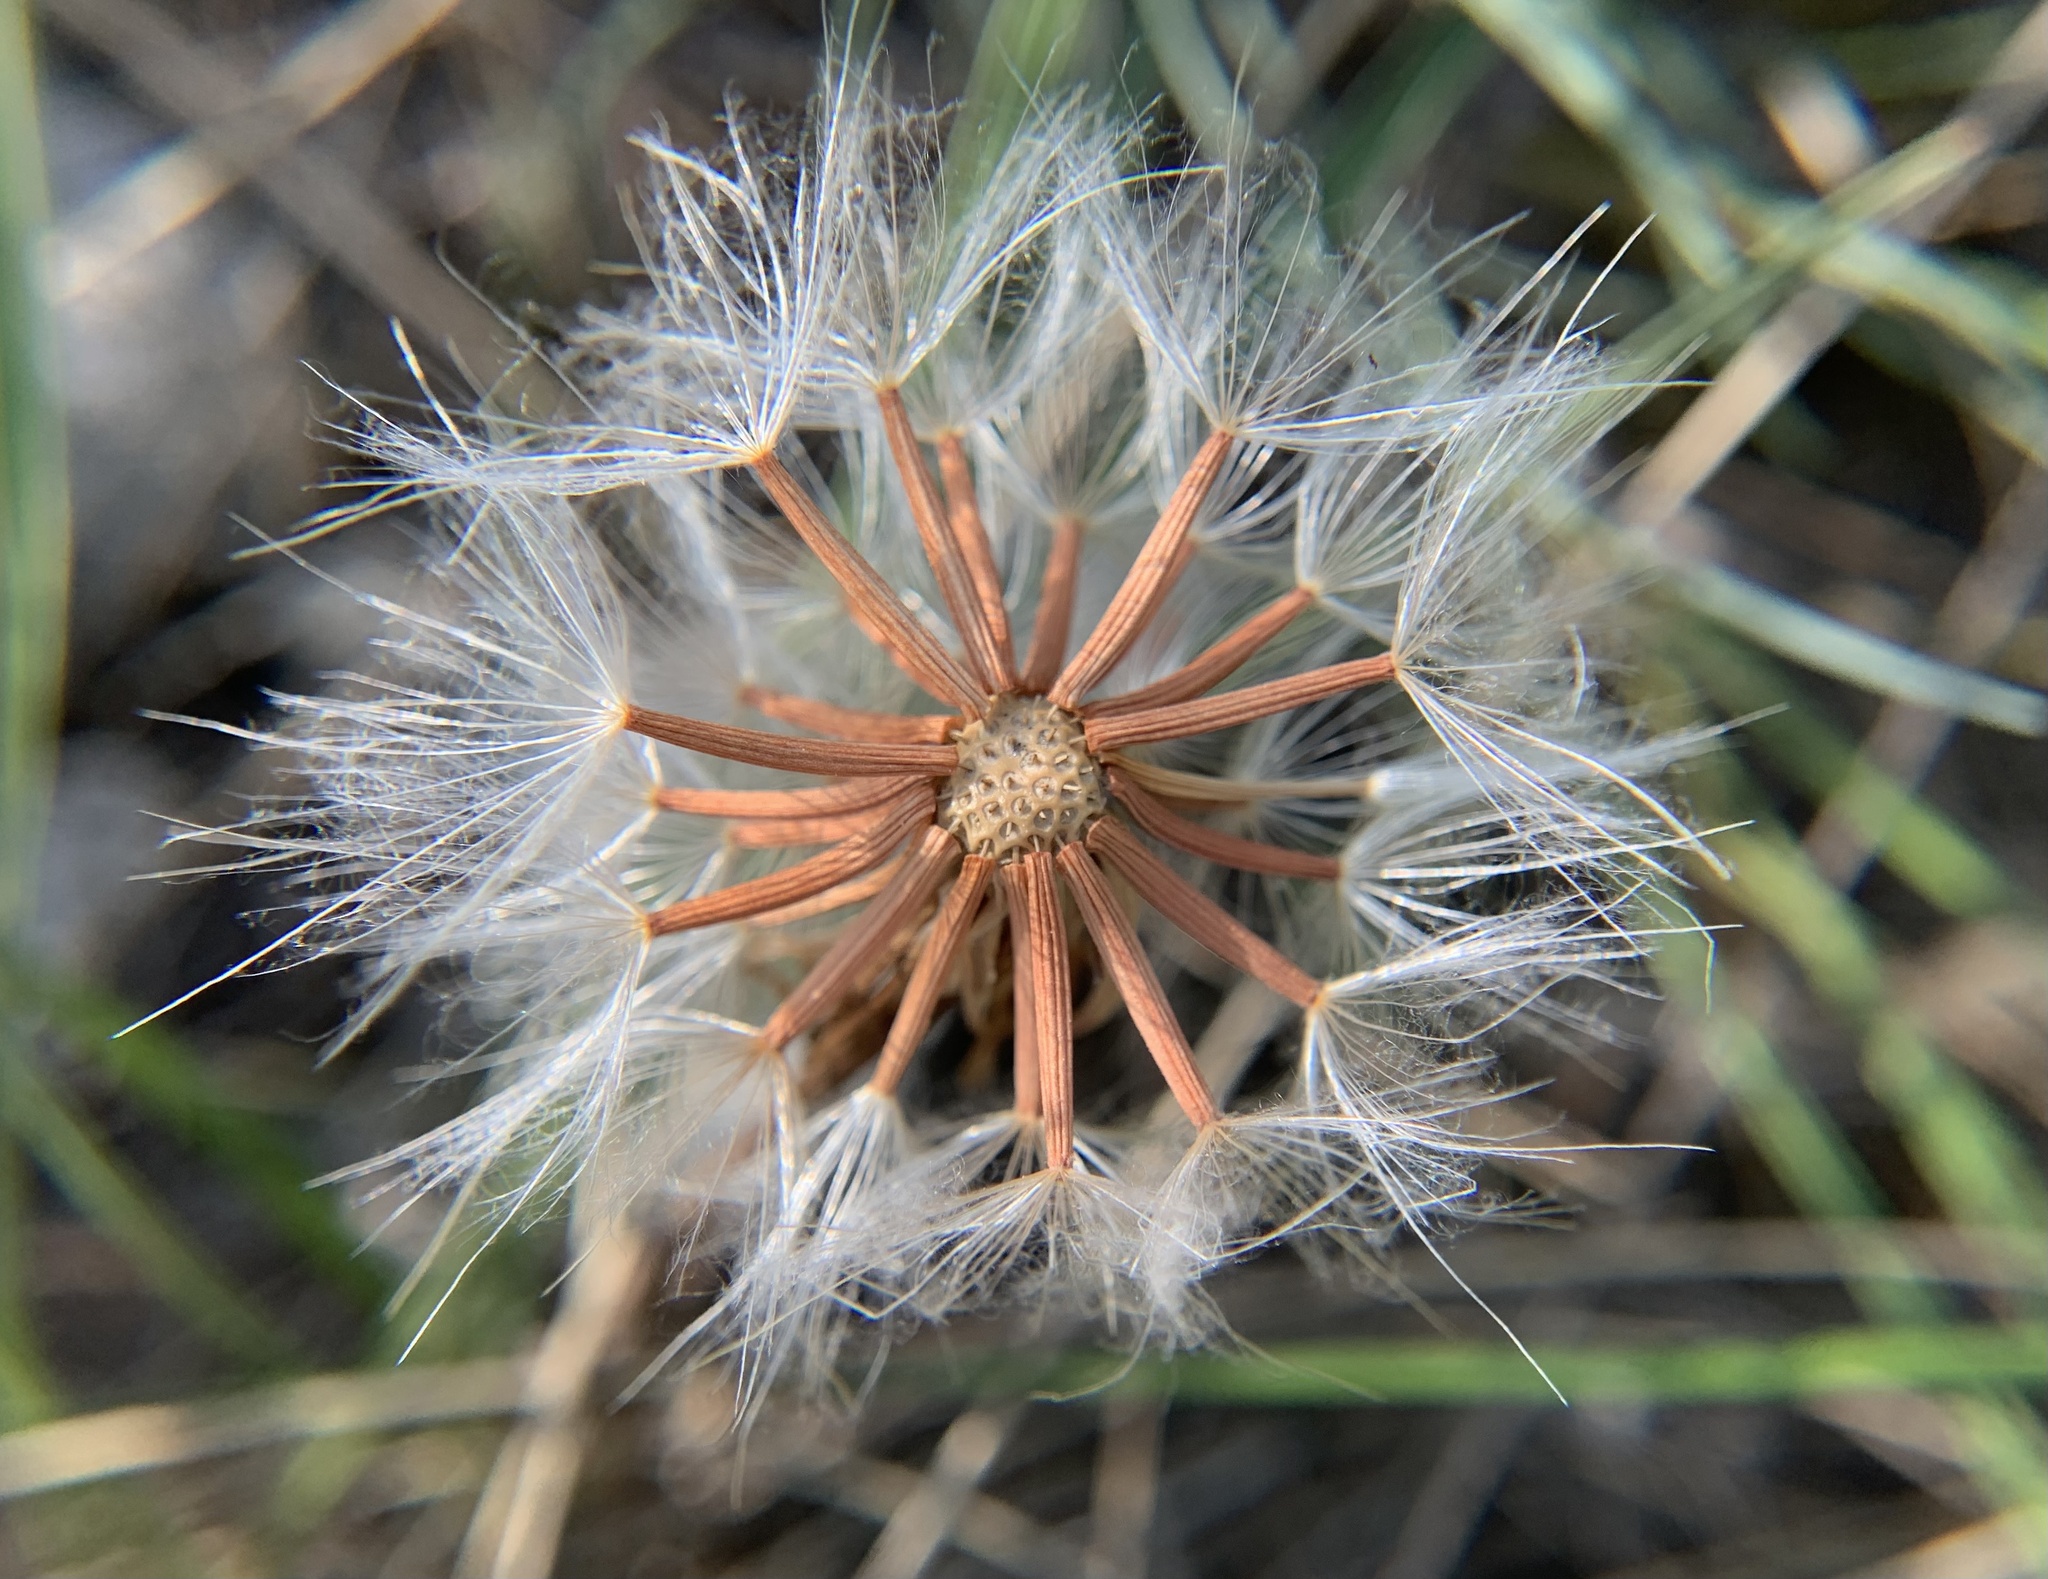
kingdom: Plantae
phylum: Tracheophyta
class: Magnoliopsida
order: Asterales
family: Asteraceae
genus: Takhtajaniantha
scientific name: Takhtajaniantha austriaca
